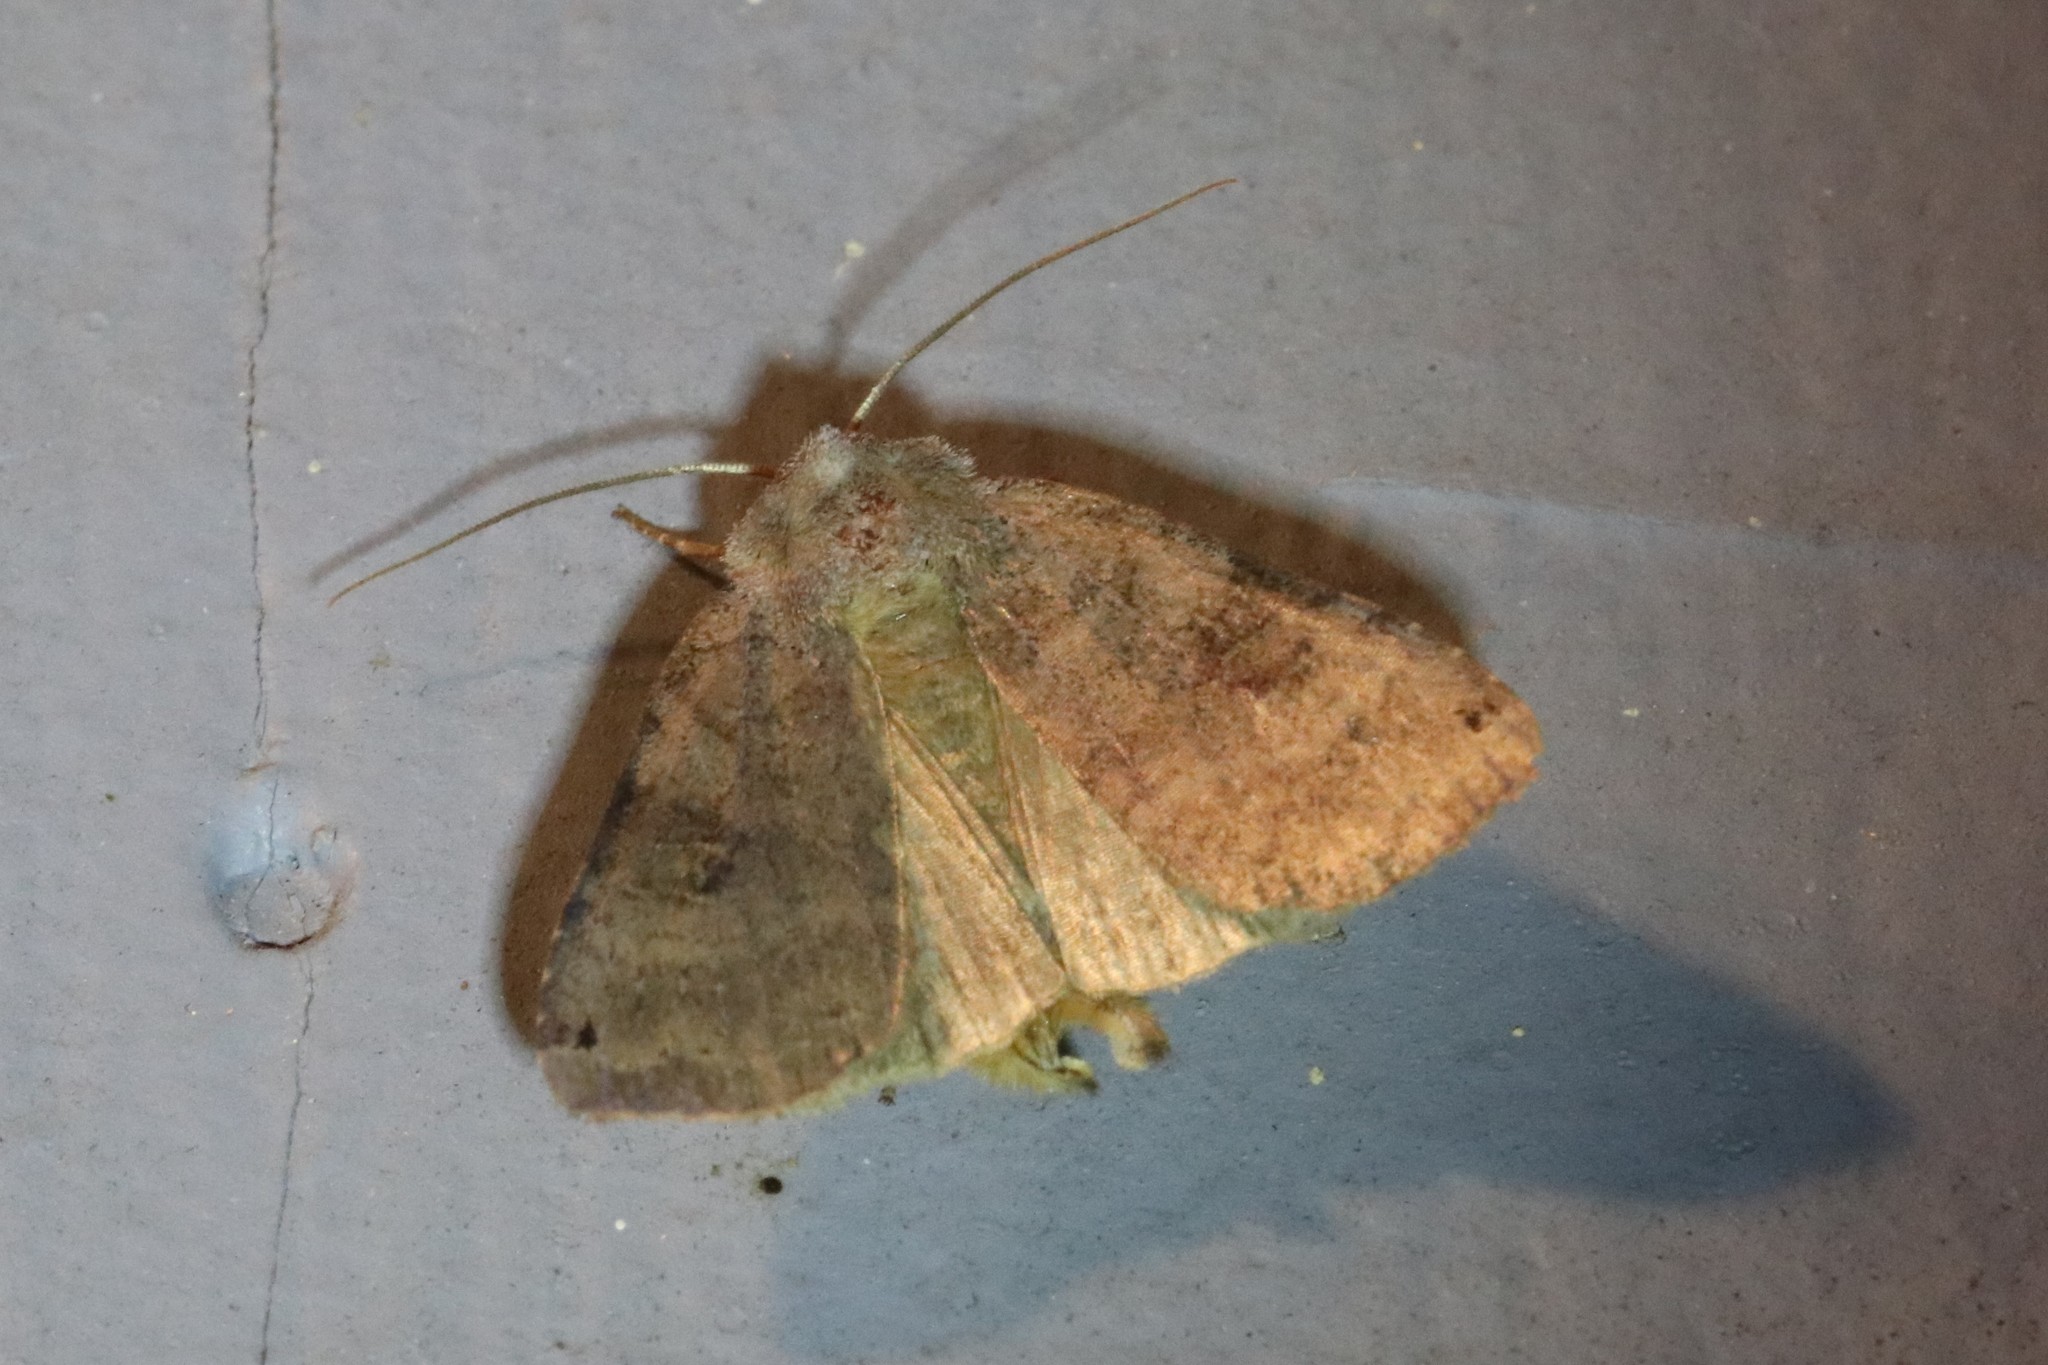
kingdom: Animalia
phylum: Arthropoda
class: Insecta
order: Lepidoptera
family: Noctuidae
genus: Xestia
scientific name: Xestia smithii
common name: Smith's dart
